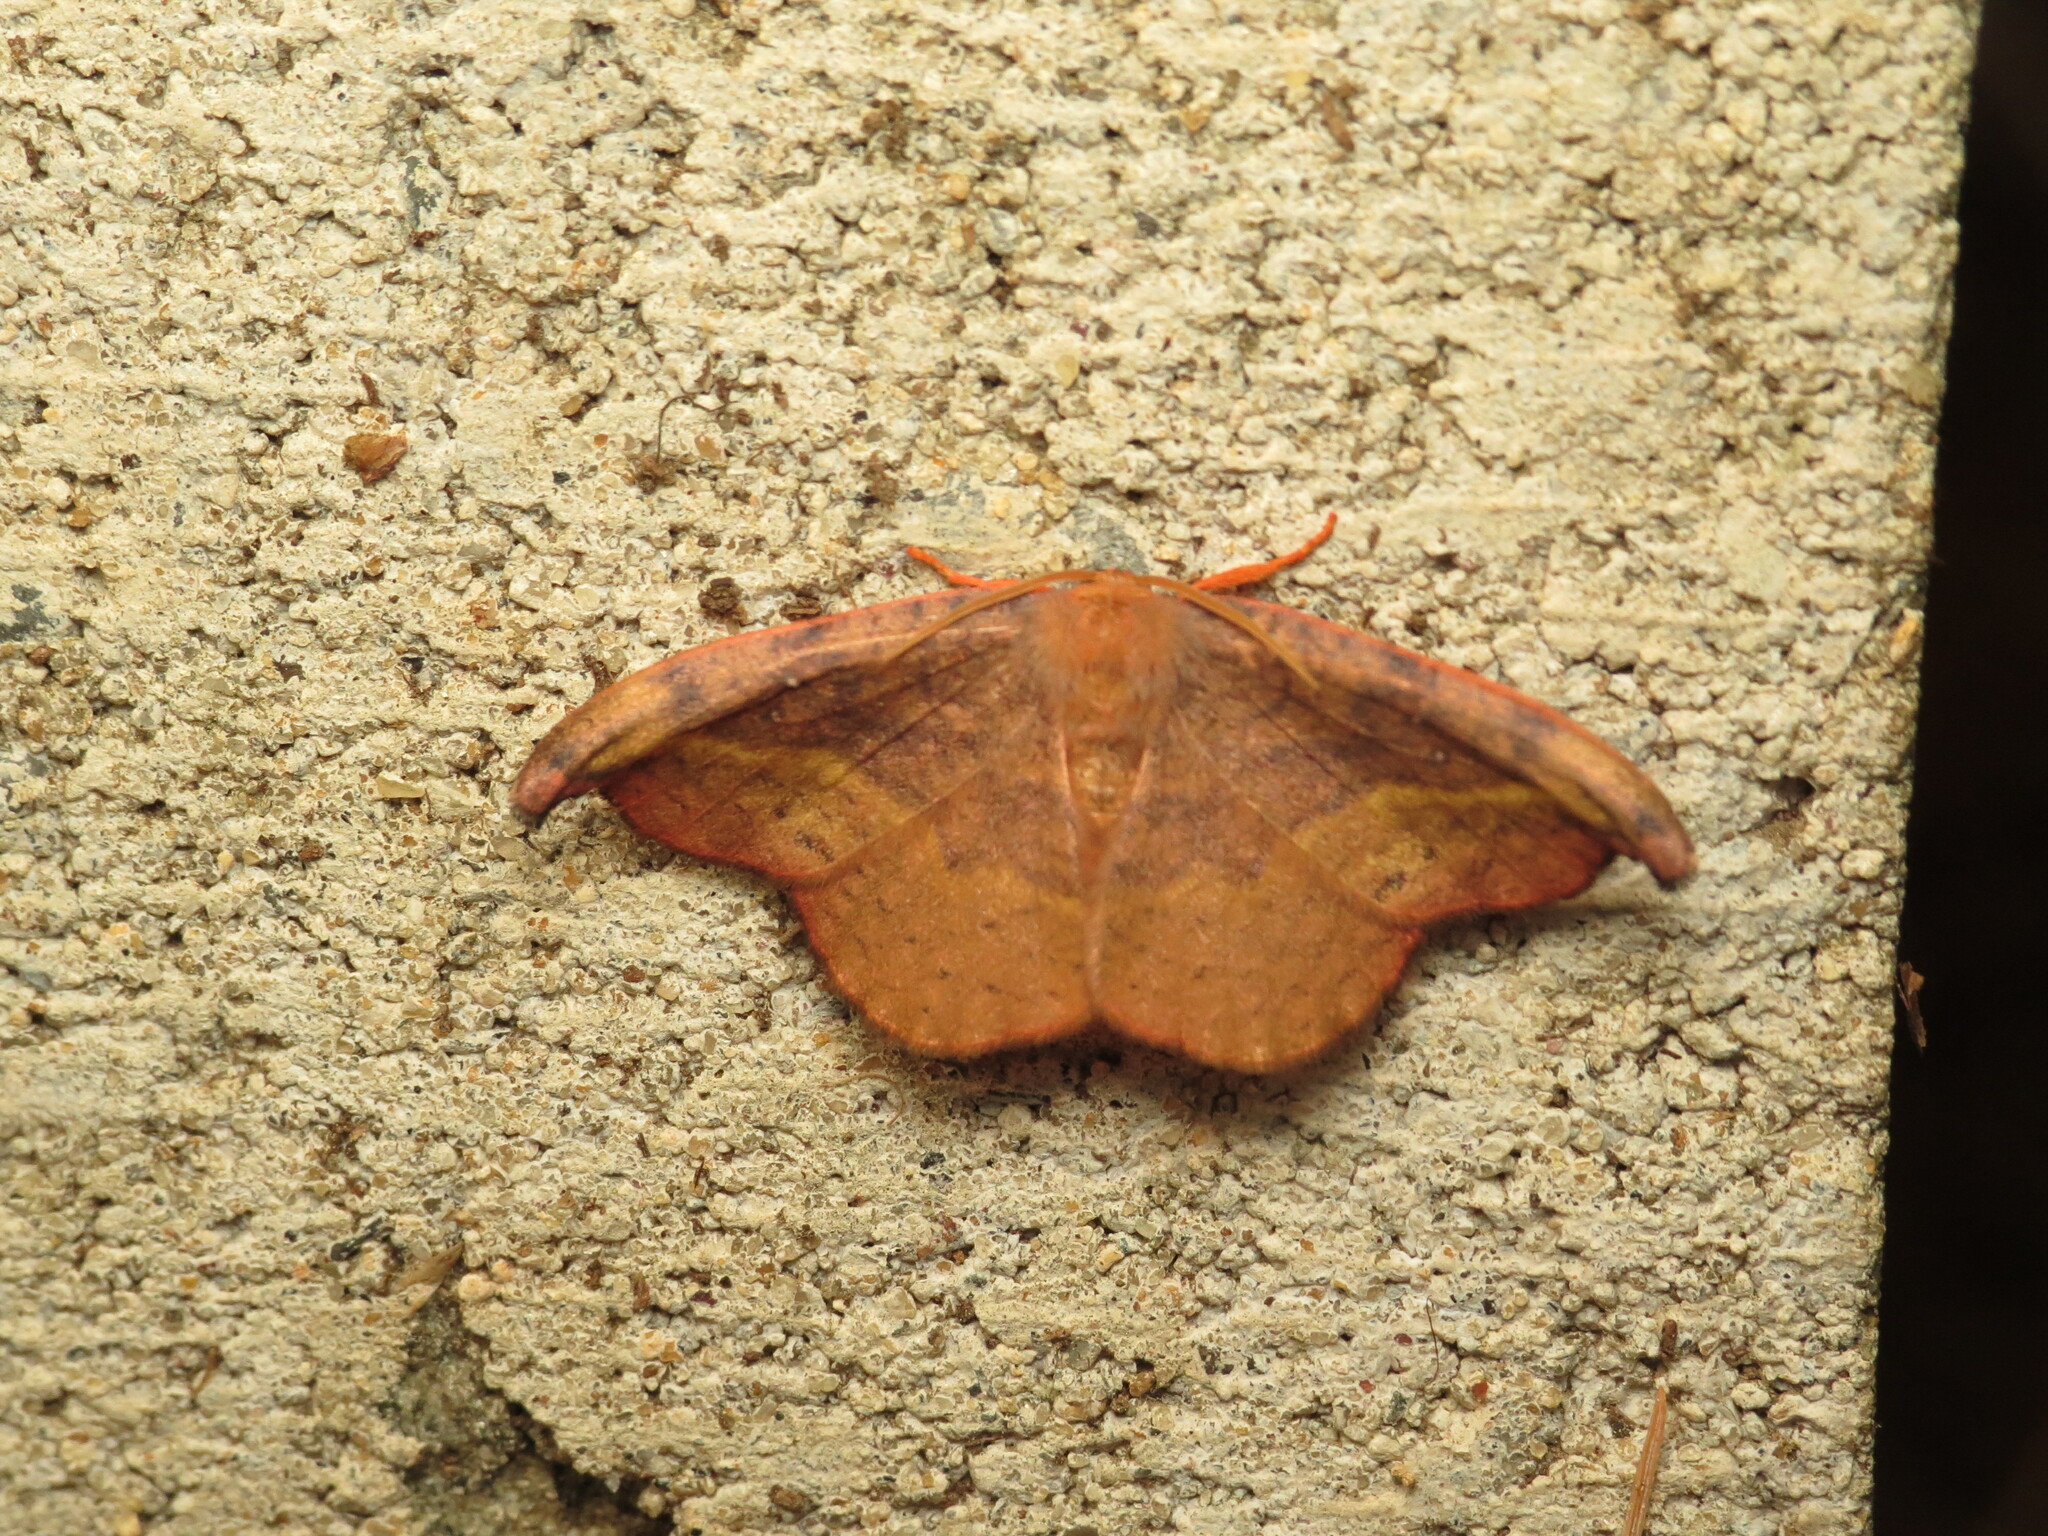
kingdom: Animalia
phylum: Arthropoda
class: Insecta
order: Lepidoptera
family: Drepanidae
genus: Oreta
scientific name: Oreta rosea
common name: Rose hooktip
